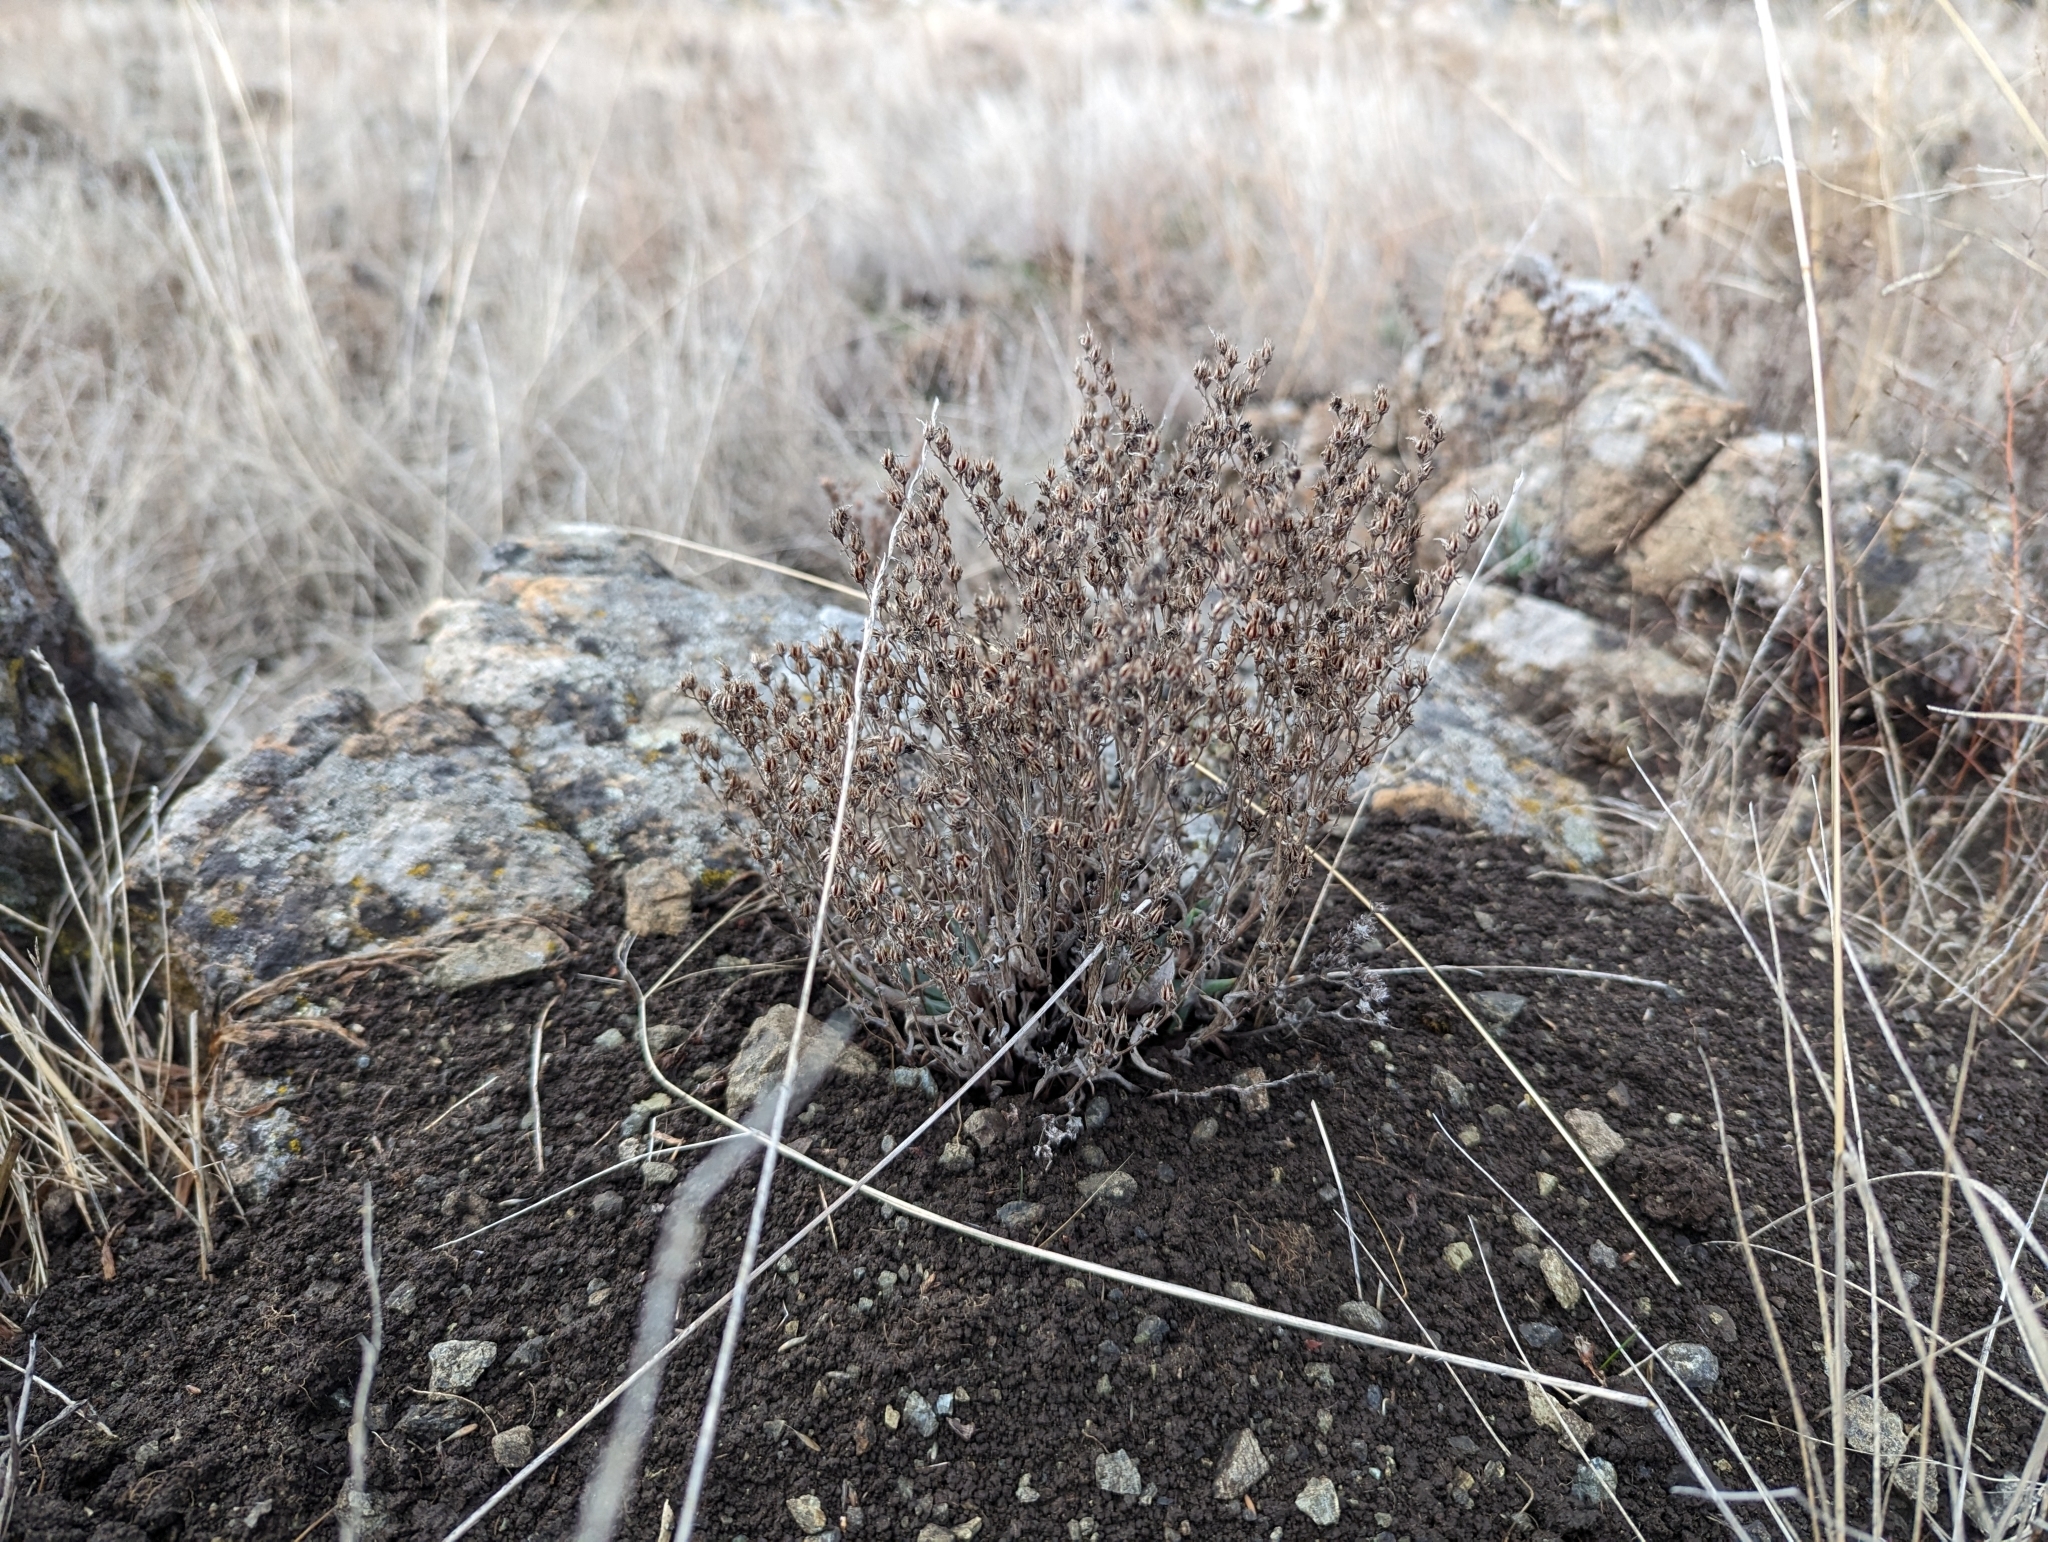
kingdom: Plantae
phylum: Tracheophyta
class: Magnoliopsida
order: Saxifragales
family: Crassulaceae
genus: Dudleya
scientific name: Dudleya abramsii
